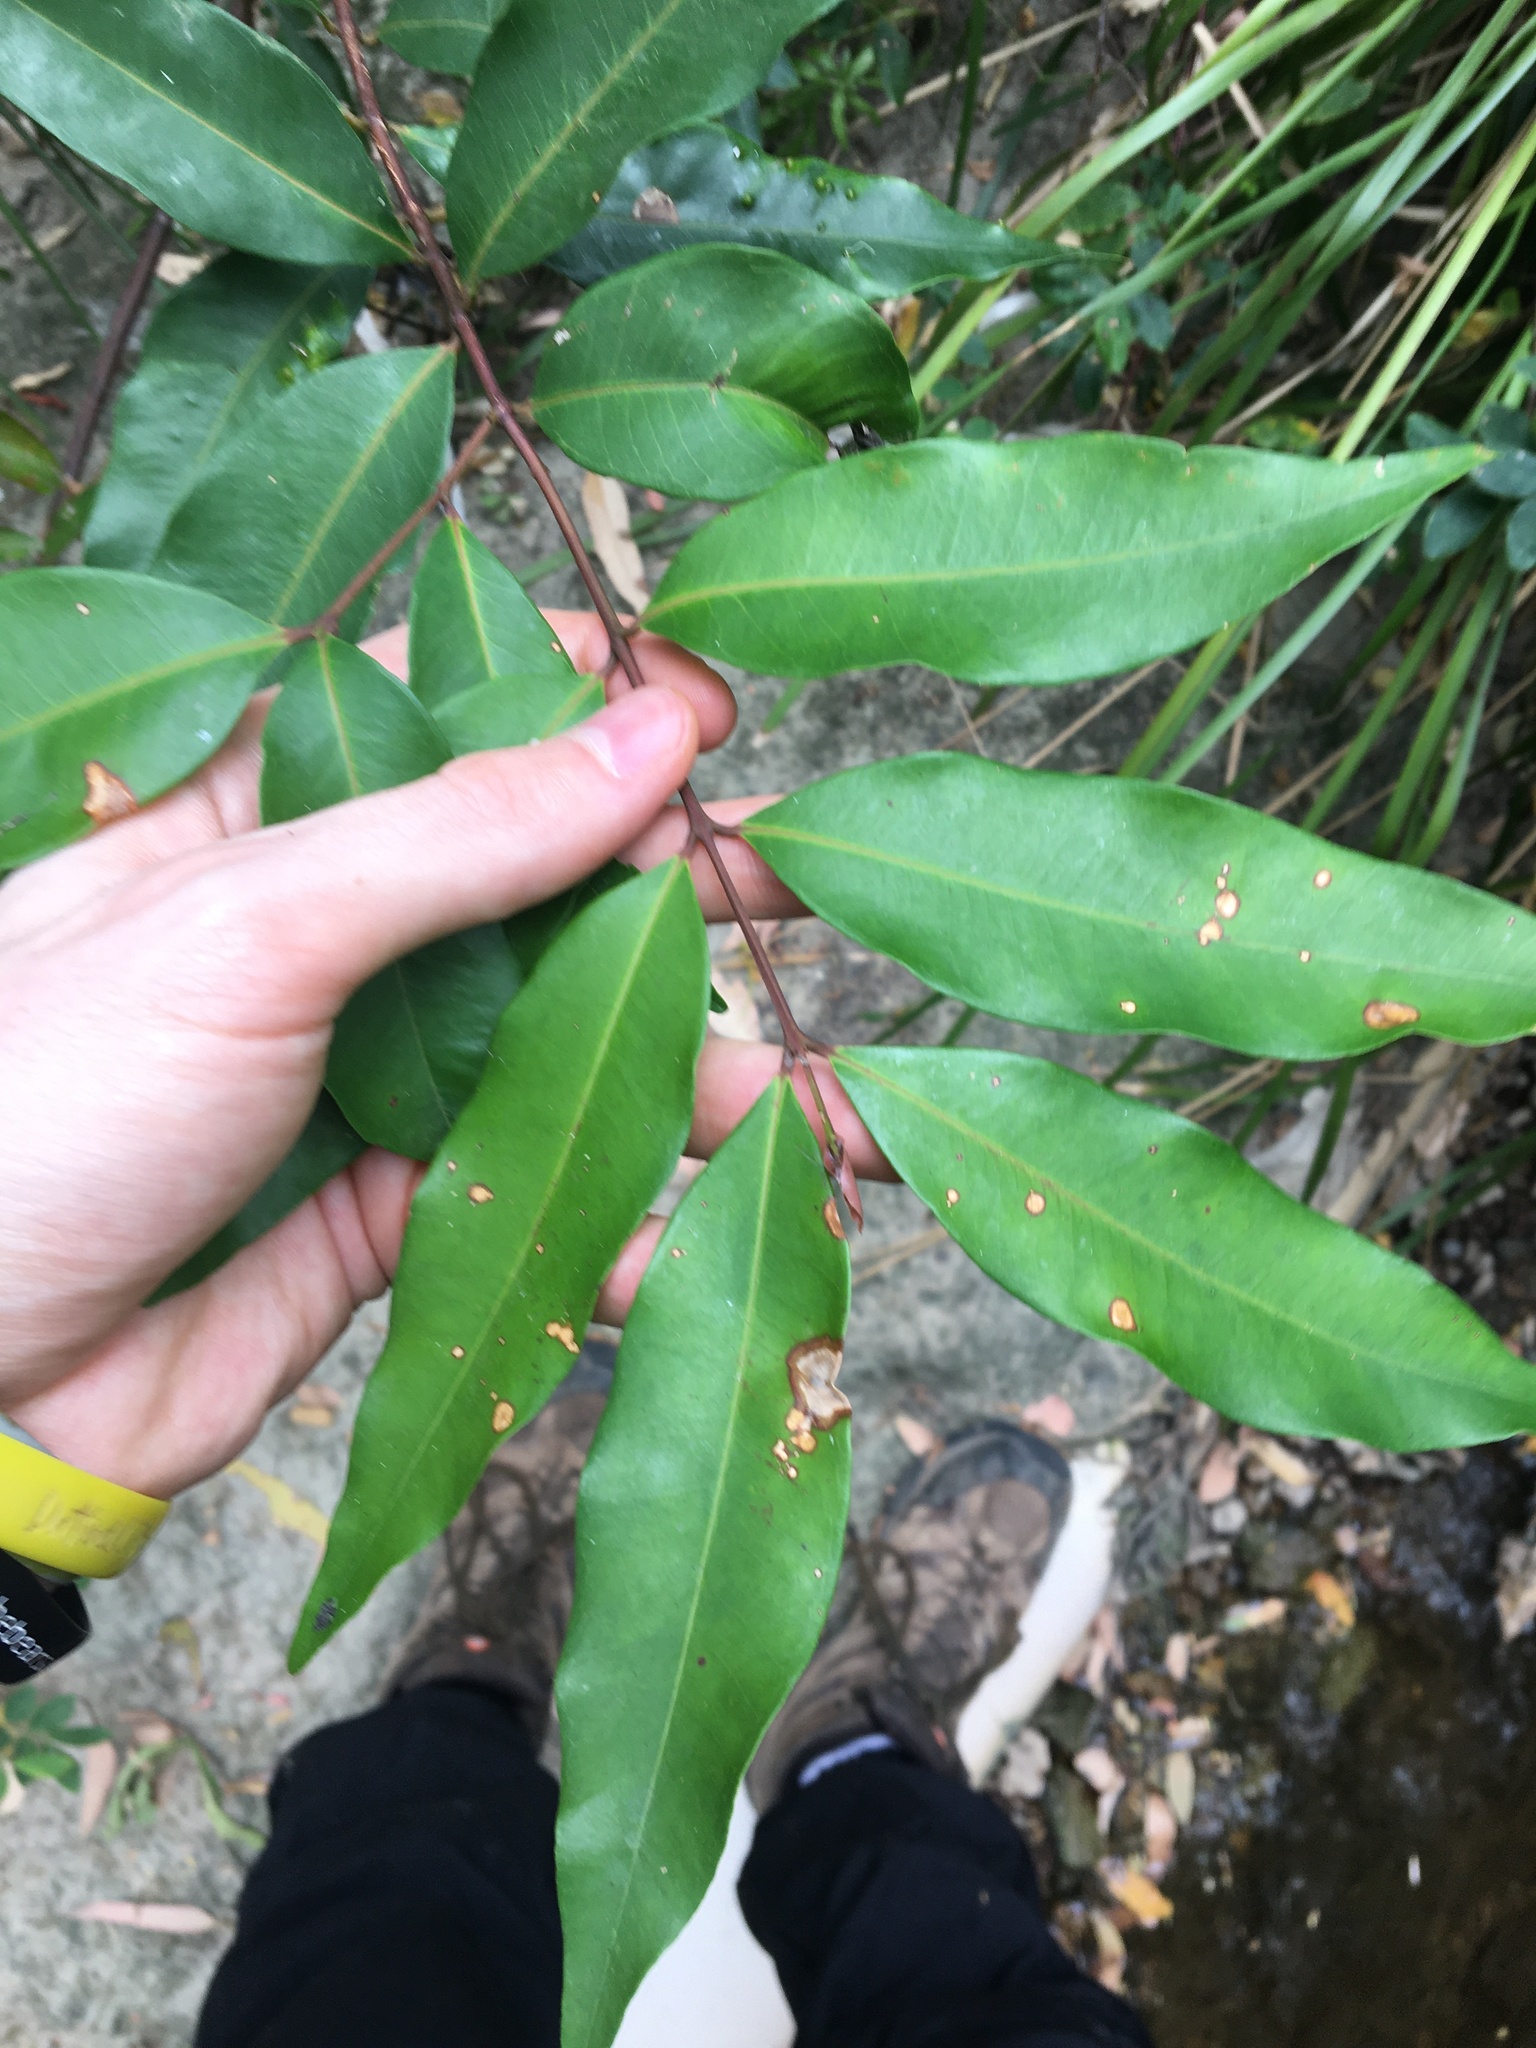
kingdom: Plantae
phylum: Tracheophyta
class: Magnoliopsida
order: Myrtales
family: Myrtaceae
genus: Syzygium
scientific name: Syzygium floribundum
